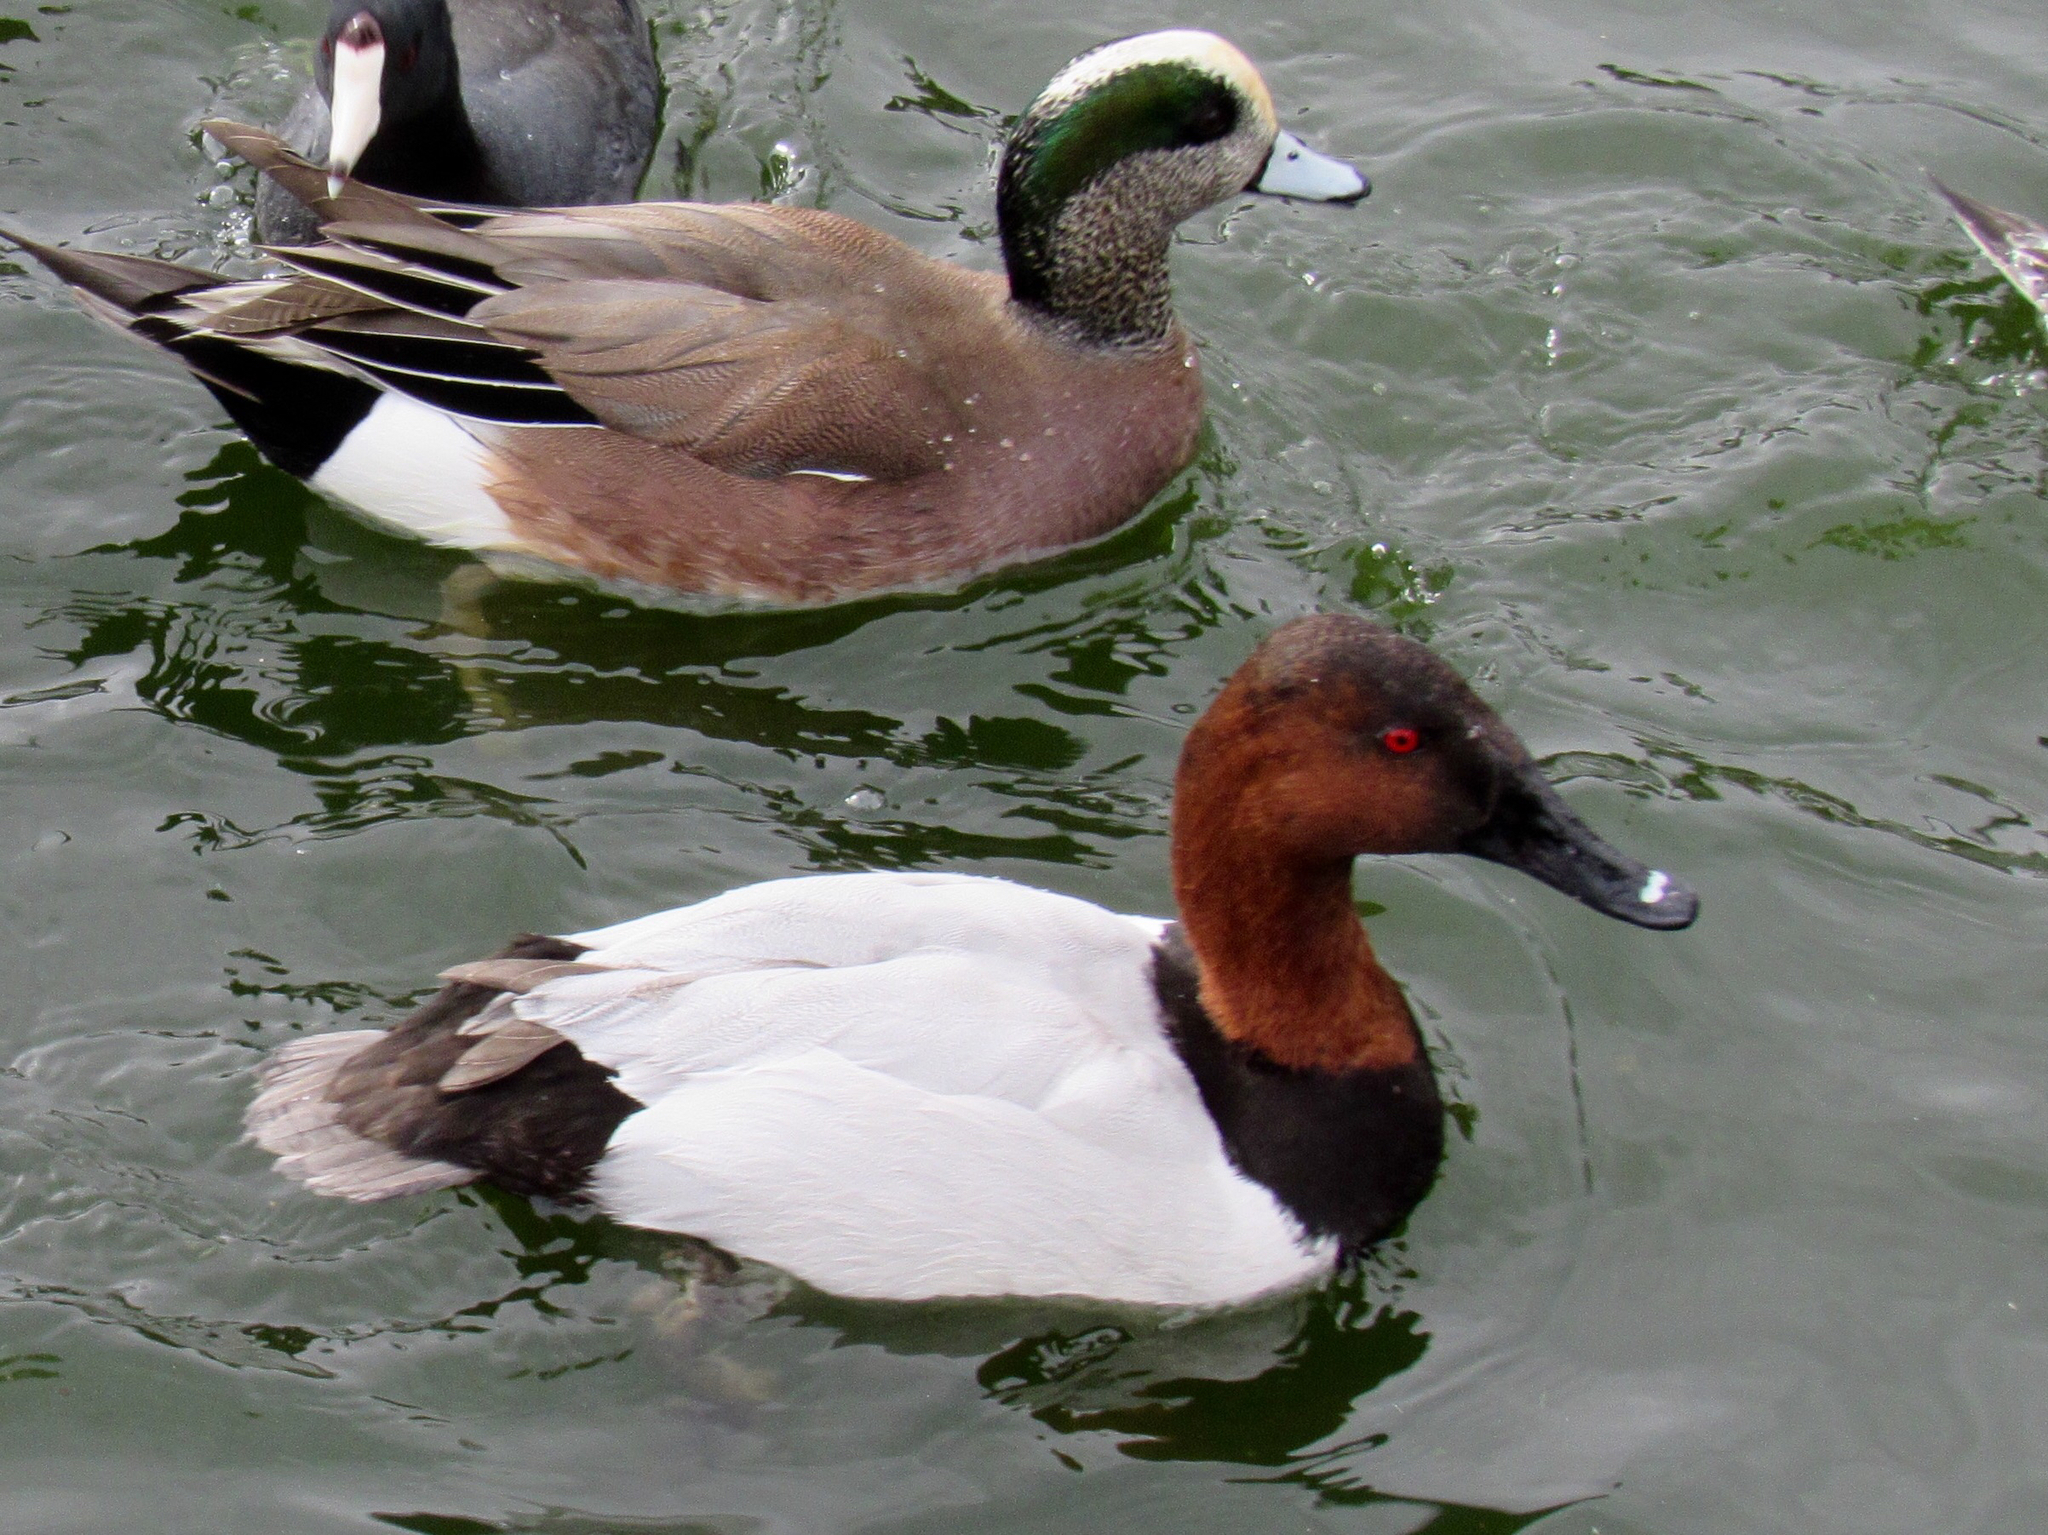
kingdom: Animalia
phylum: Chordata
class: Aves
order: Anseriformes
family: Anatidae
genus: Aythya
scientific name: Aythya valisineria
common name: Canvasback
